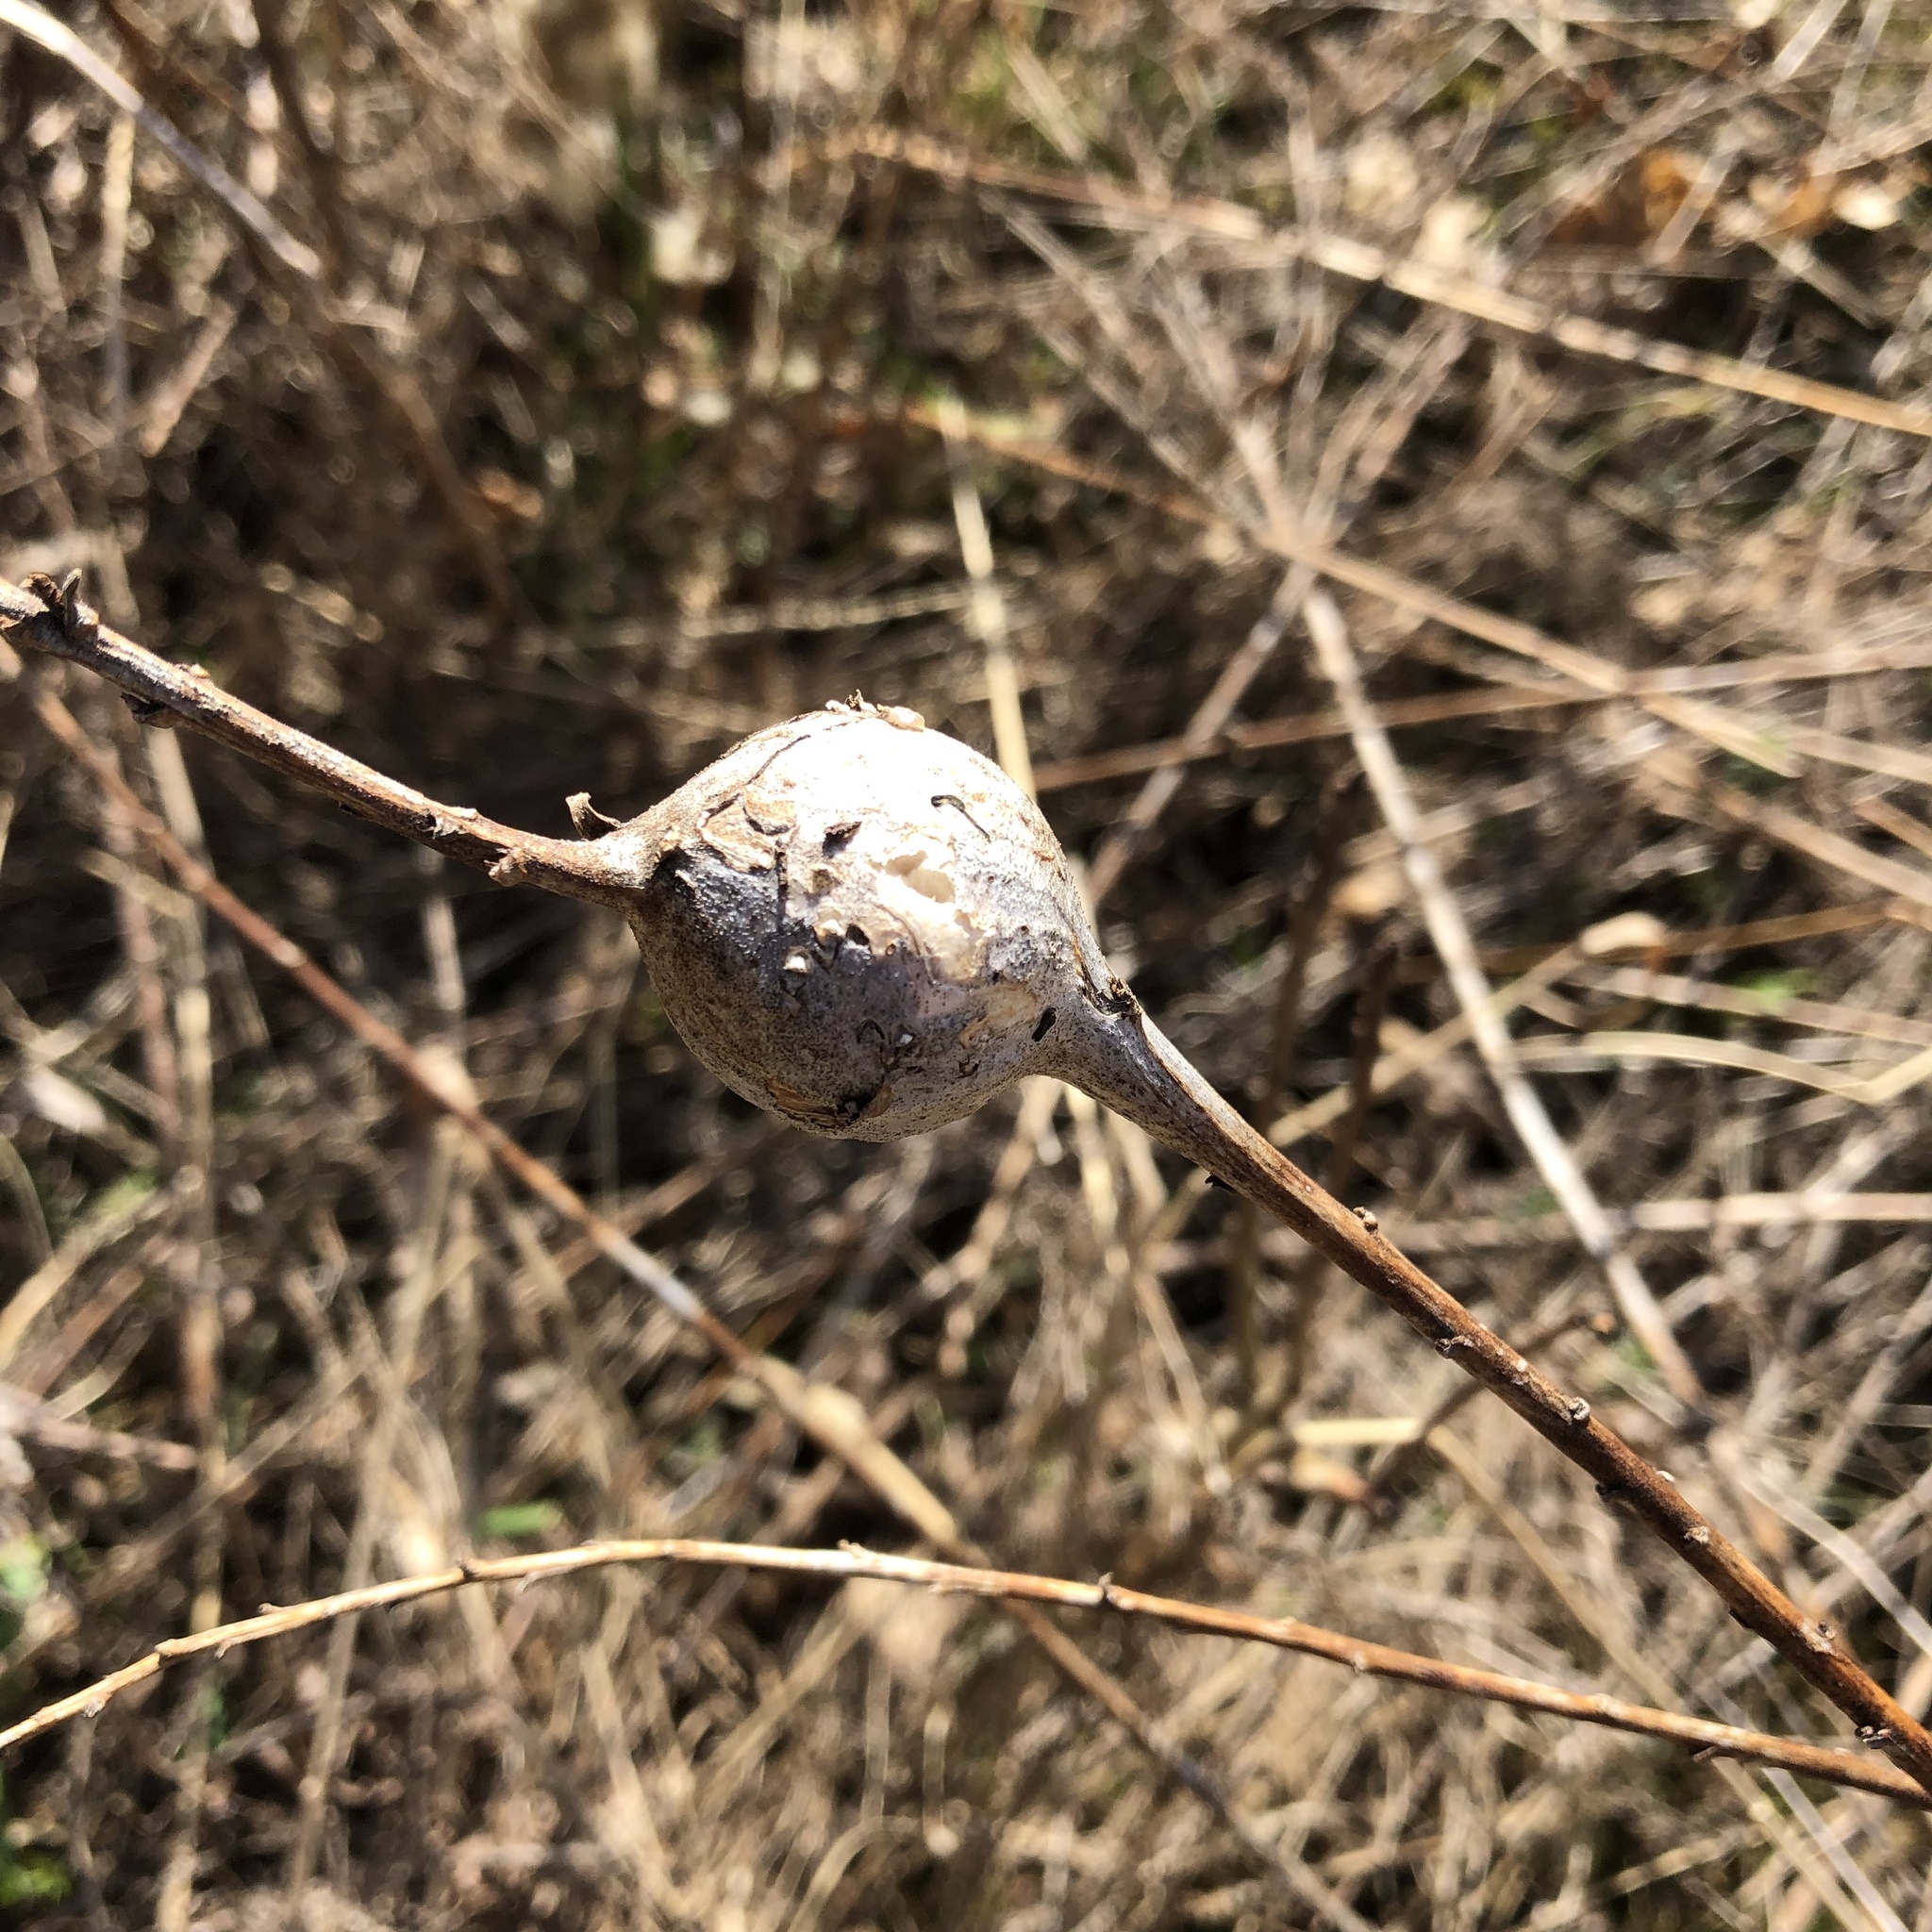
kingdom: Animalia
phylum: Arthropoda
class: Insecta
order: Diptera
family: Tephritidae
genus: Eurosta
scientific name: Eurosta solidaginis
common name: Goldenrod gall fly
